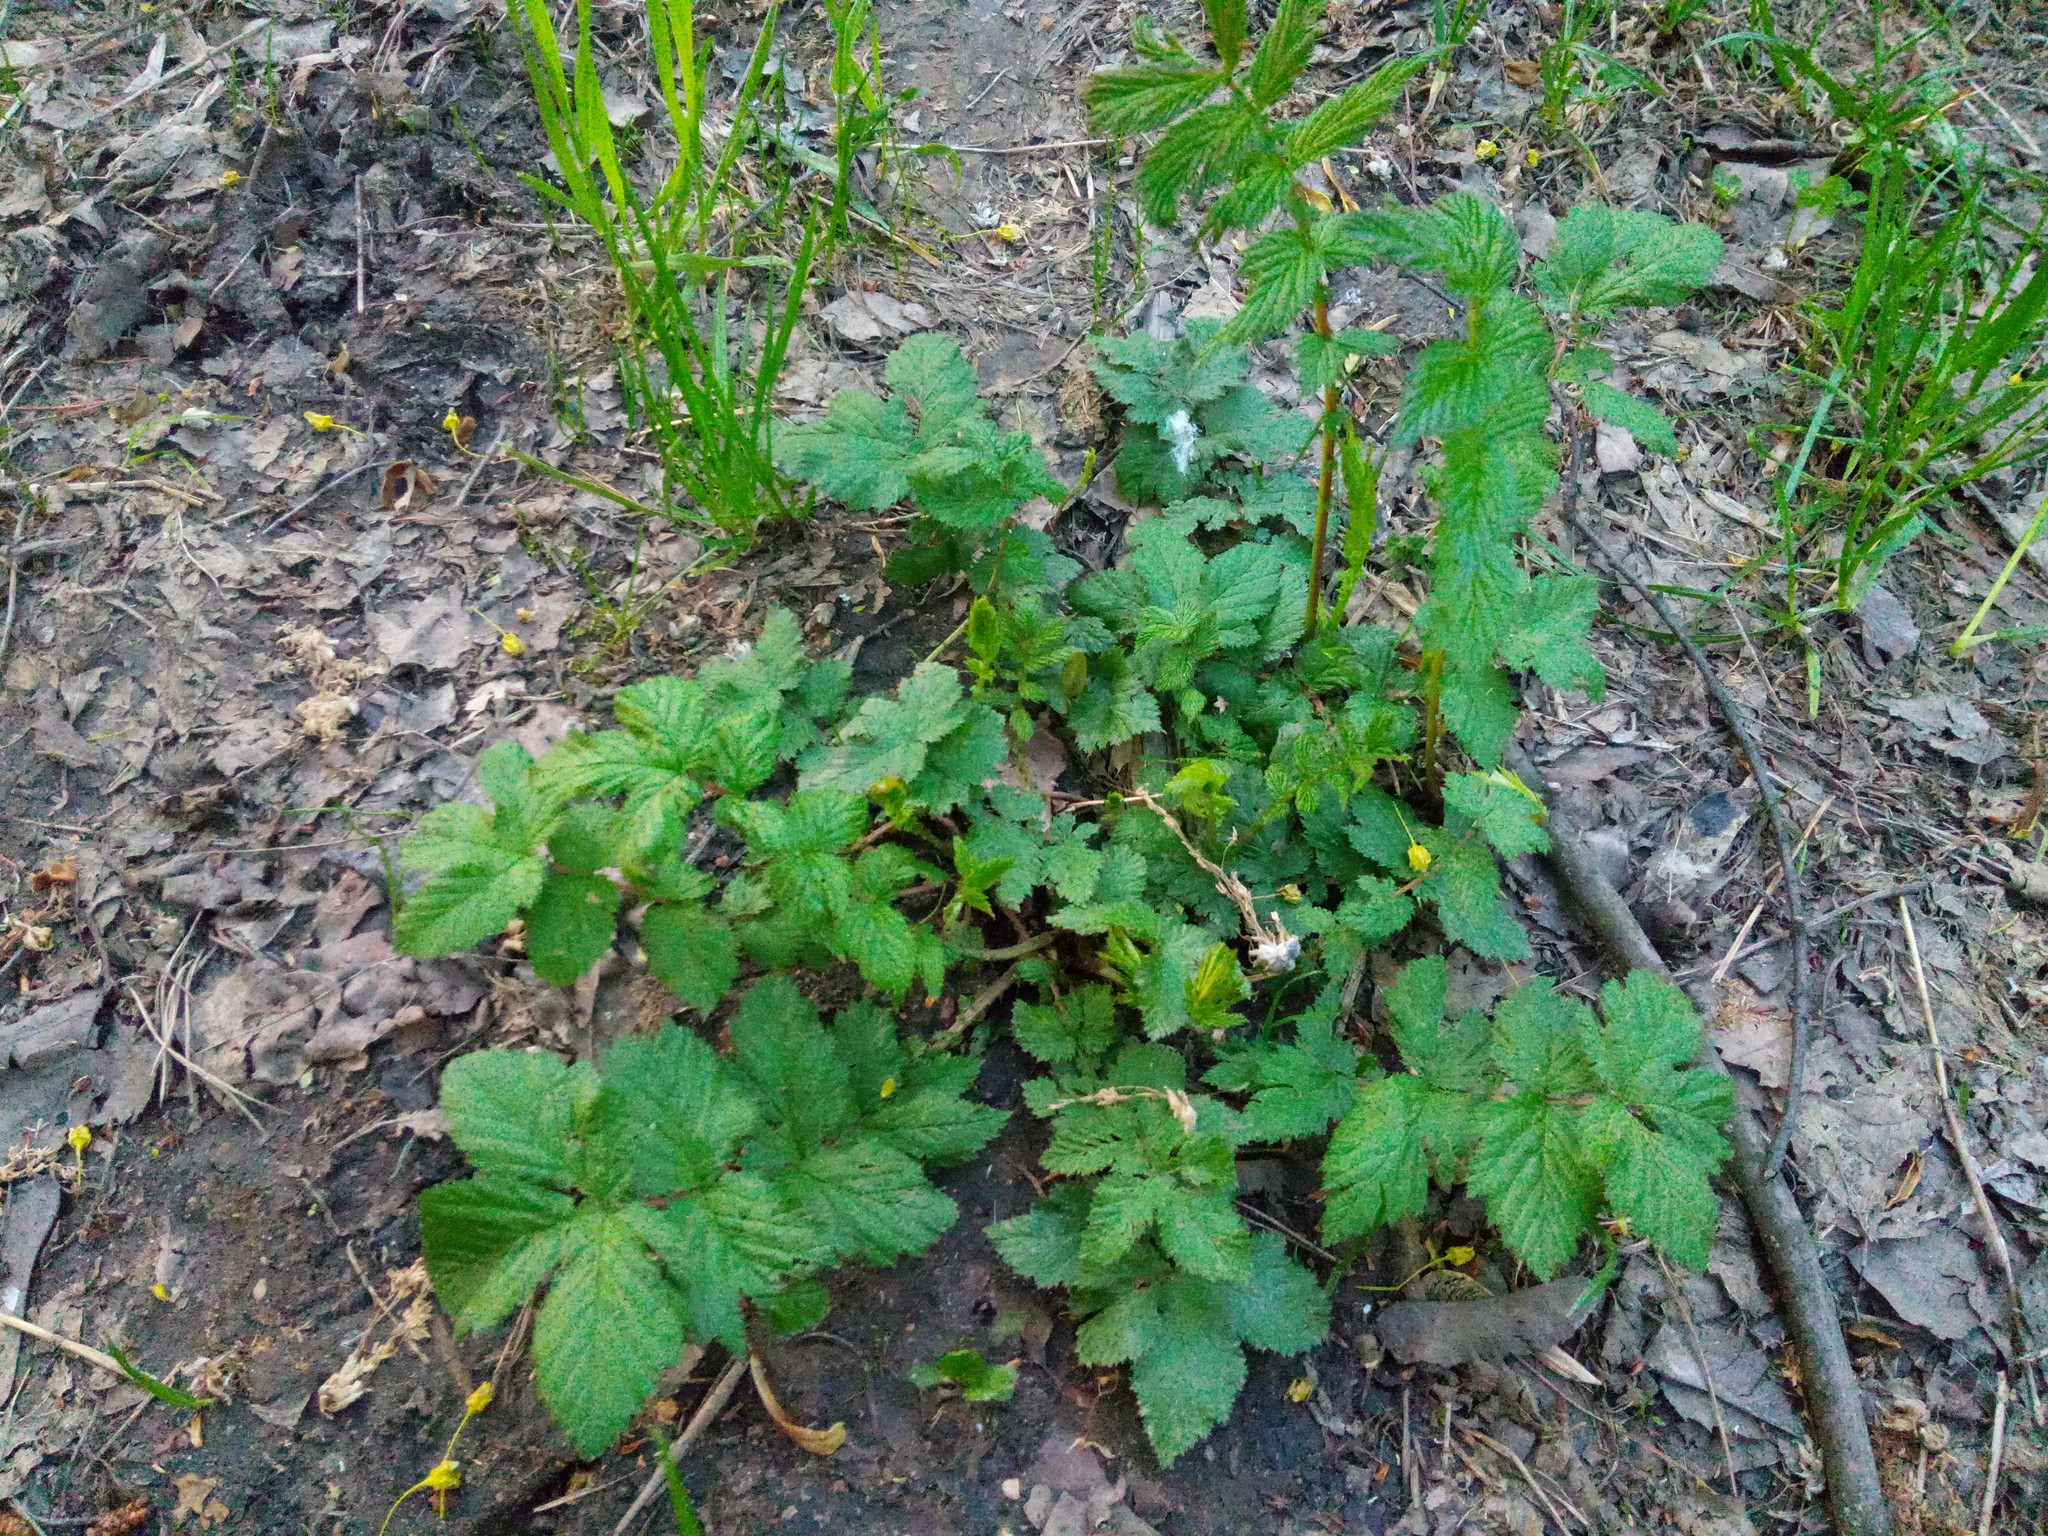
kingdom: Plantae
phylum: Tracheophyta
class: Magnoliopsida
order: Rosales
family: Rosaceae
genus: Filipendula
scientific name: Filipendula ulmaria
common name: Meadowsweet
